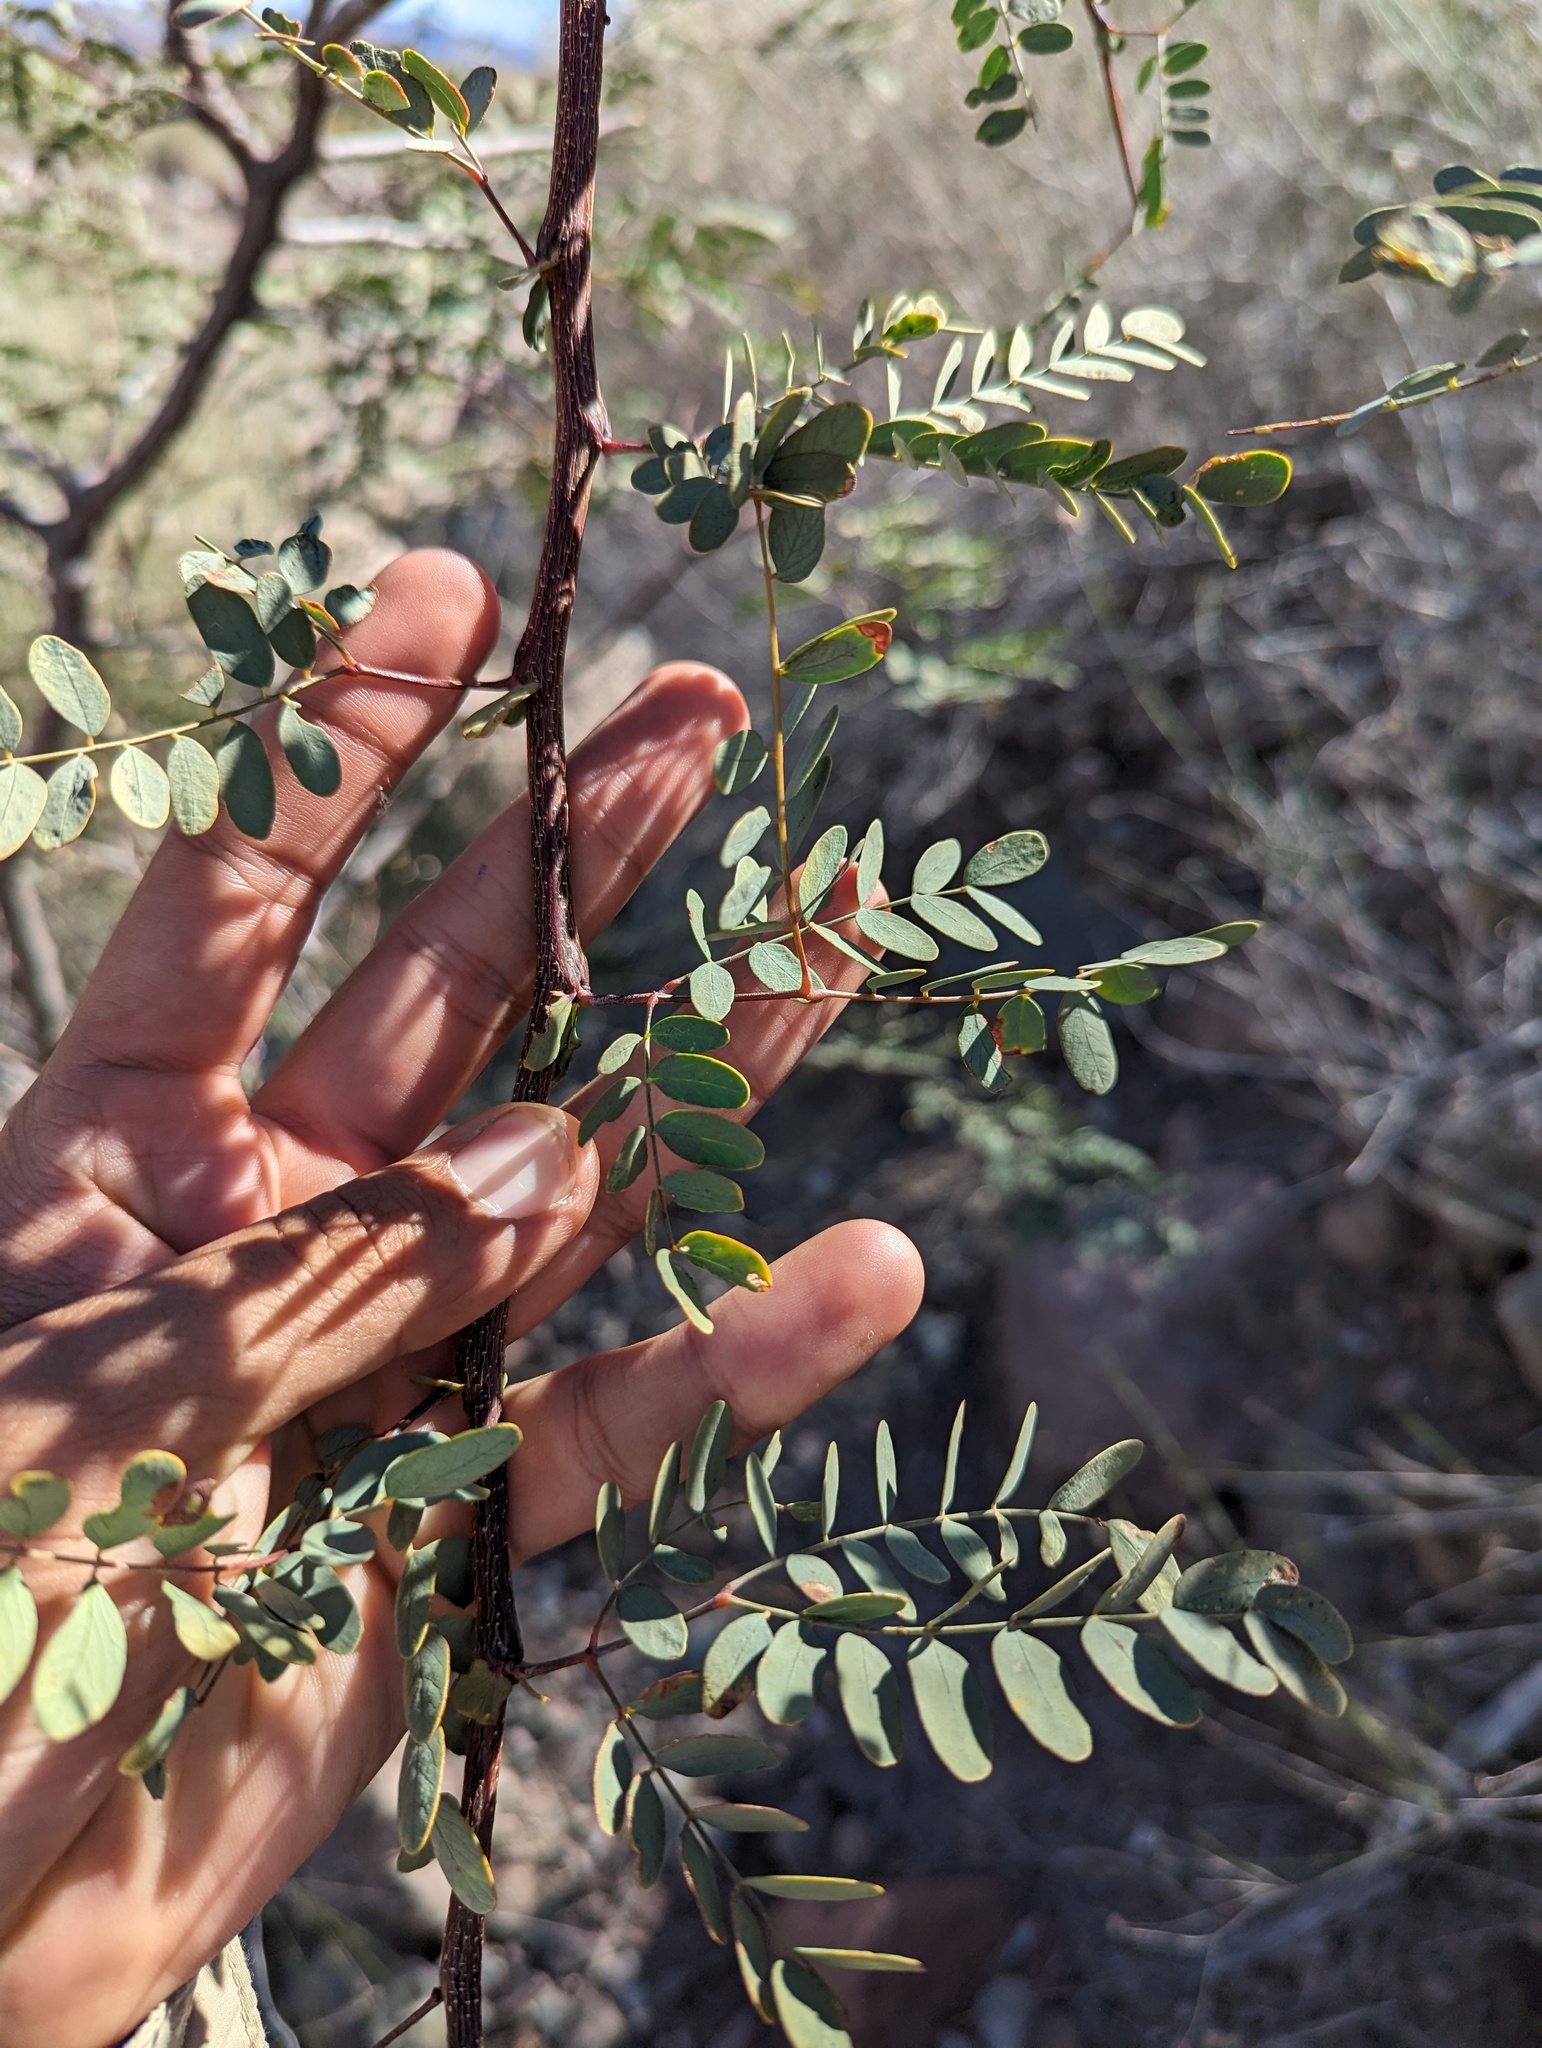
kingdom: Plantae
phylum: Tracheophyta
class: Magnoliopsida
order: Fabales
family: Fabaceae
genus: Lysiloma
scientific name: Lysiloma candidum
